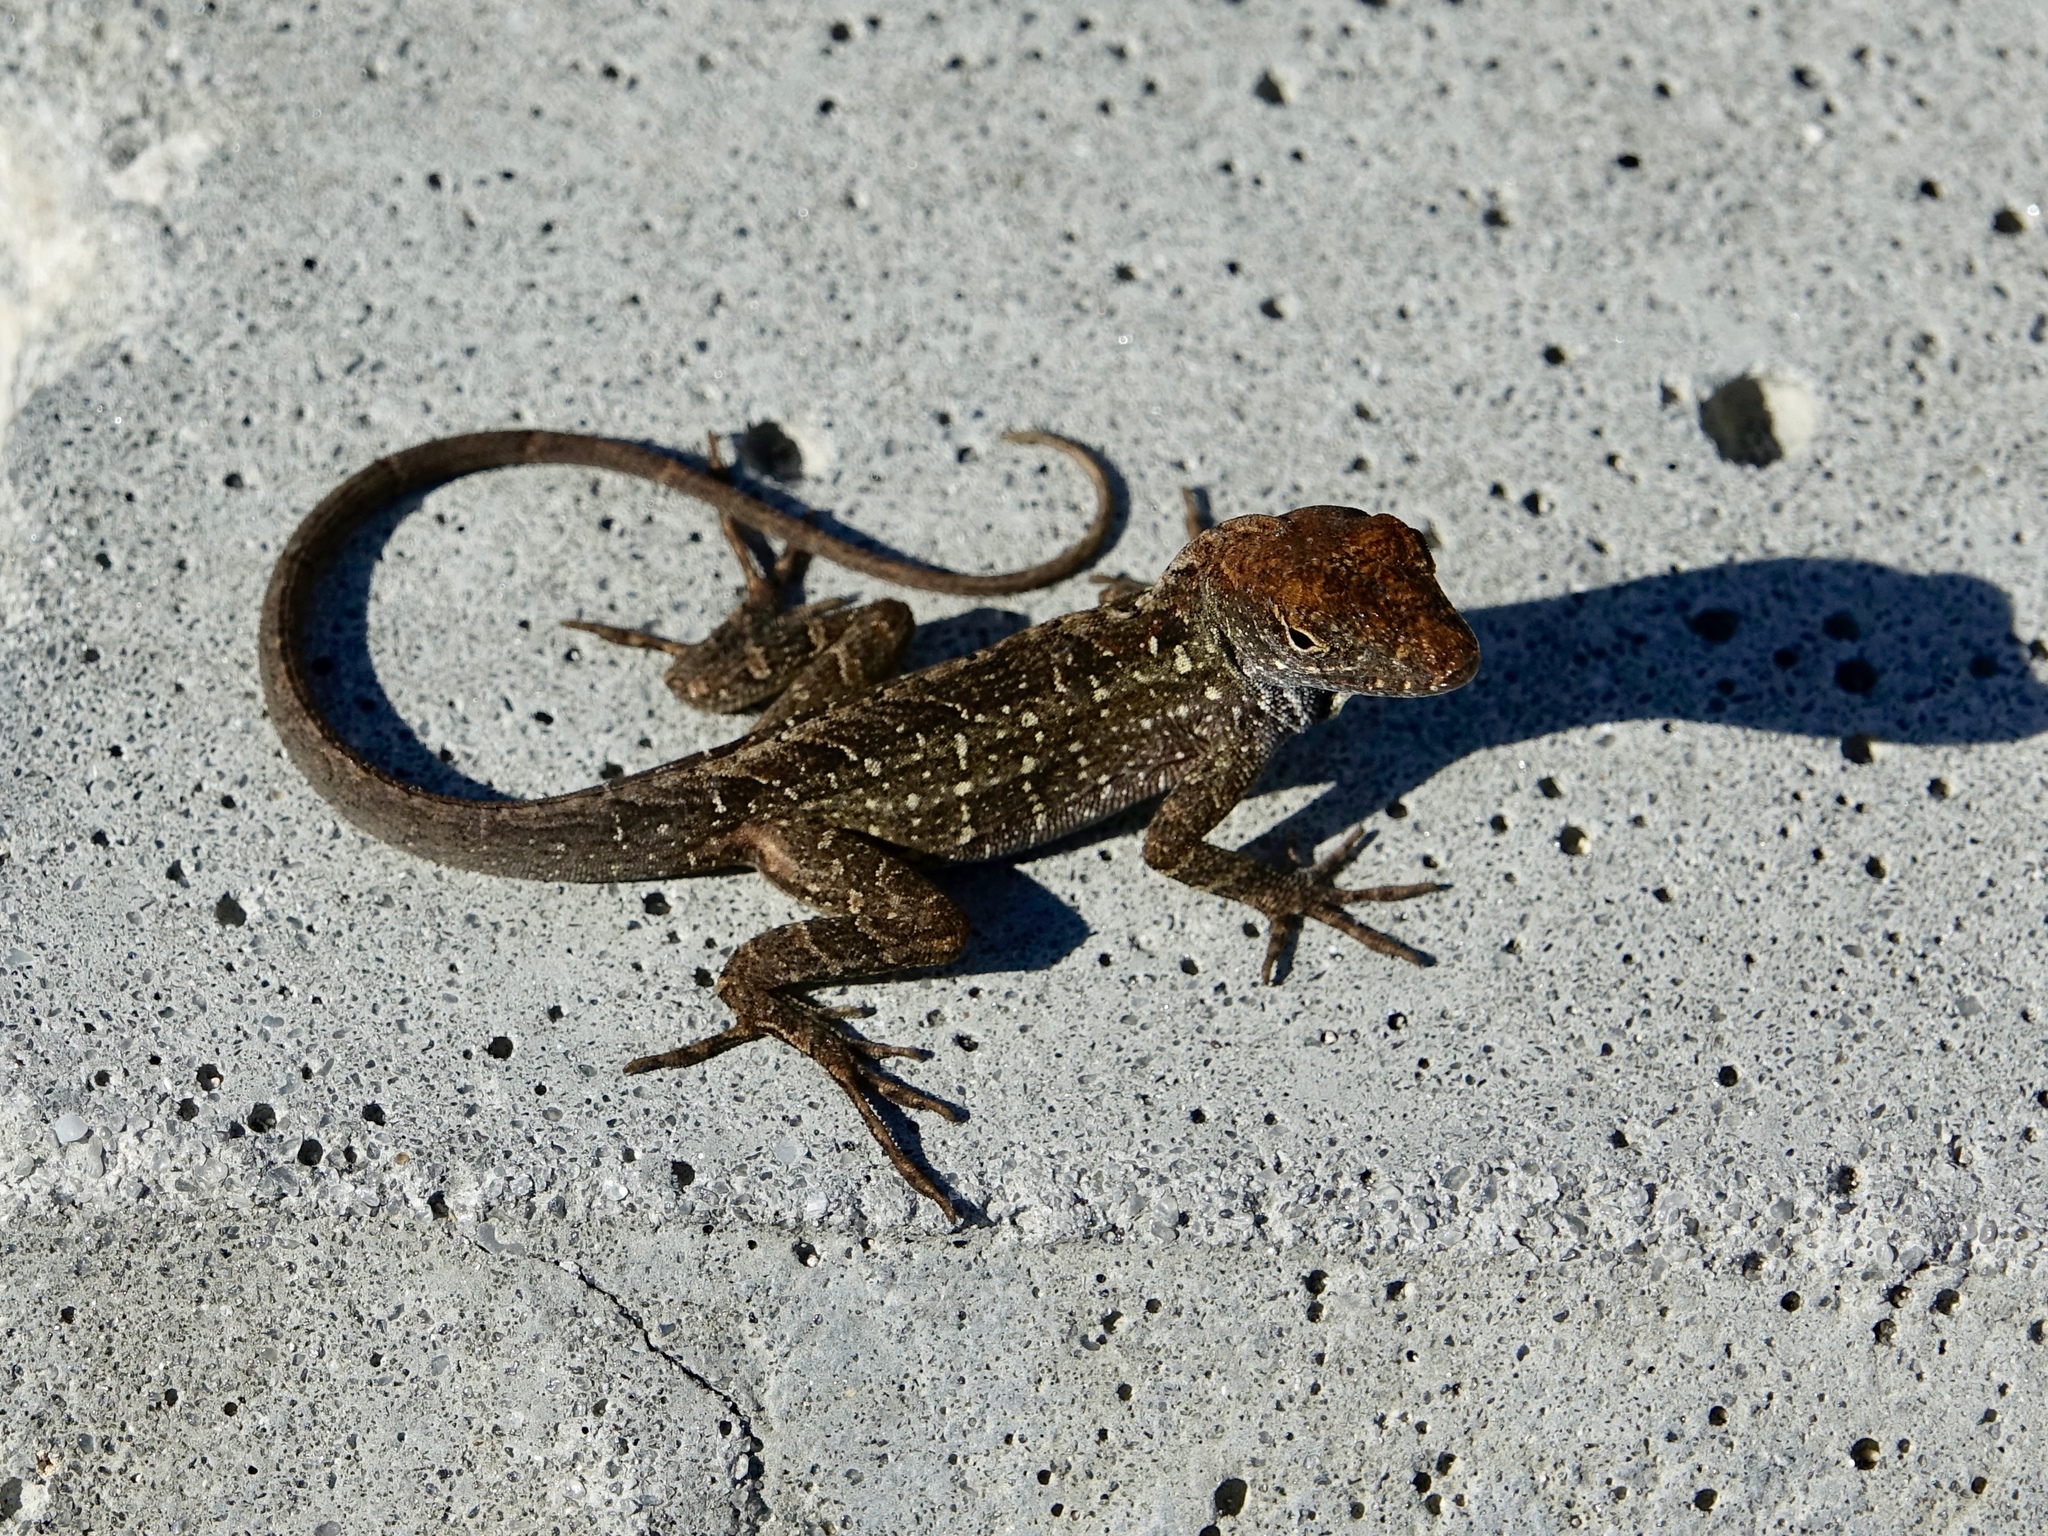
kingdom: Animalia
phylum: Chordata
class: Squamata
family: Dactyloidae
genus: Anolis
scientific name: Anolis sagrei
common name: Brown anole
